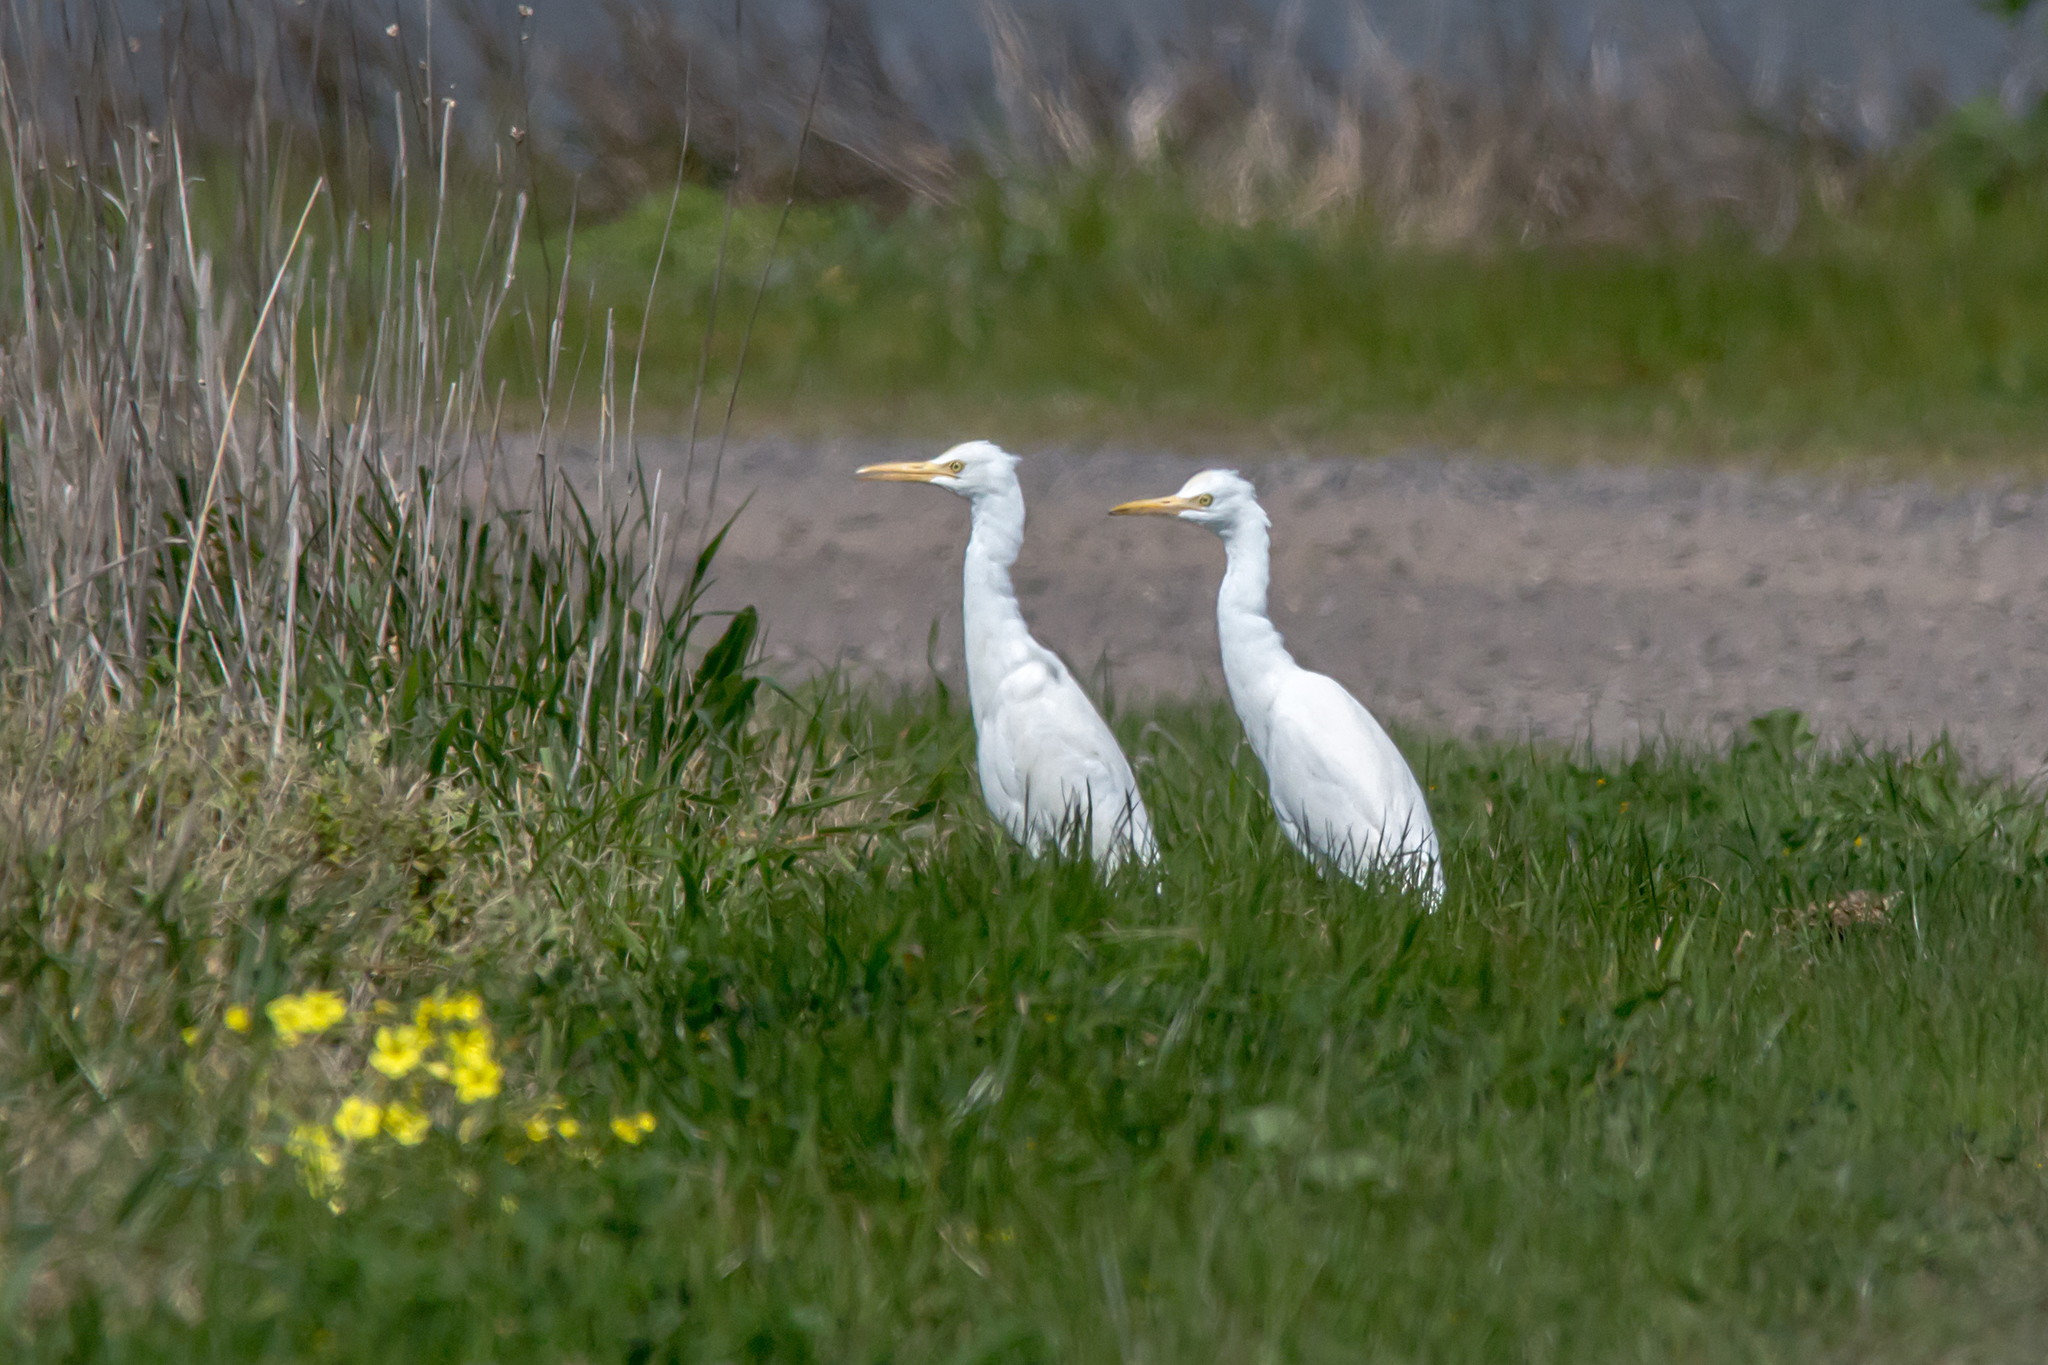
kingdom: Animalia
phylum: Chordata
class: Aves
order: Pelecaniformes
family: Ardeidae
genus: Bubulcus
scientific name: Bubulcus coromandus
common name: Eastern cattle egret
